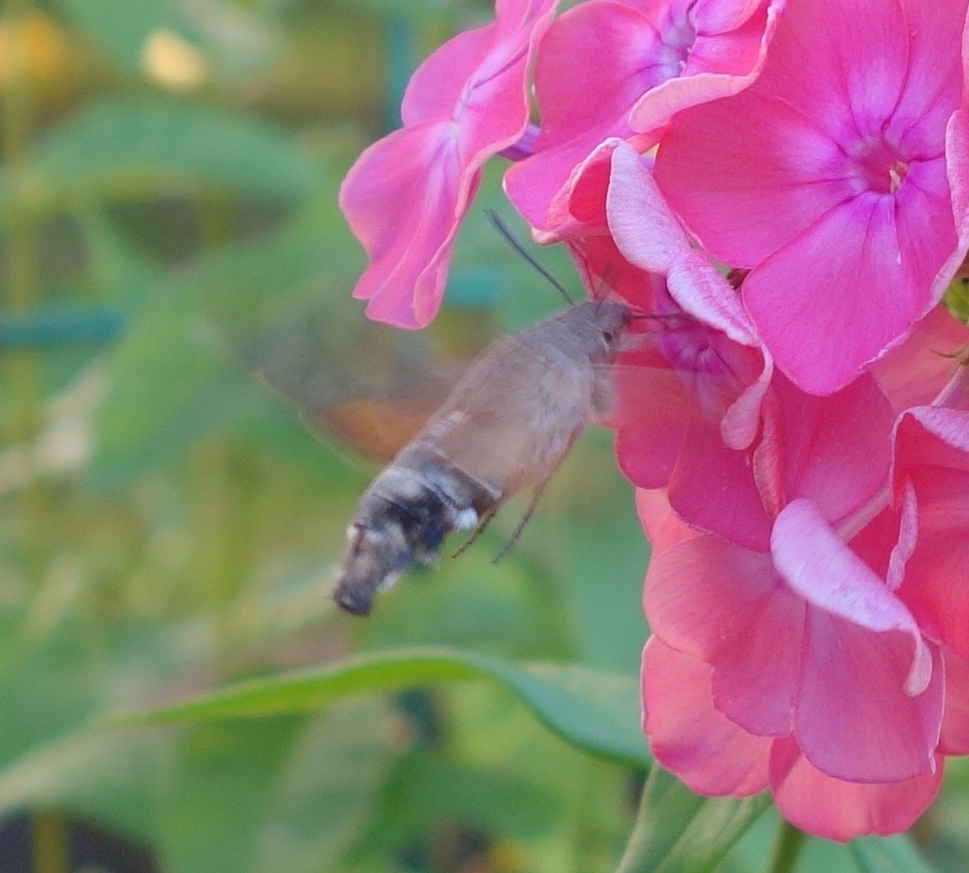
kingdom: Animalia
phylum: Arthropoda
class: Insecta
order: Lepidoptera
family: Sphingidae
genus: Macroglossum
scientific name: Macroglossum stellatarum
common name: Humming-bird hawk-moth
